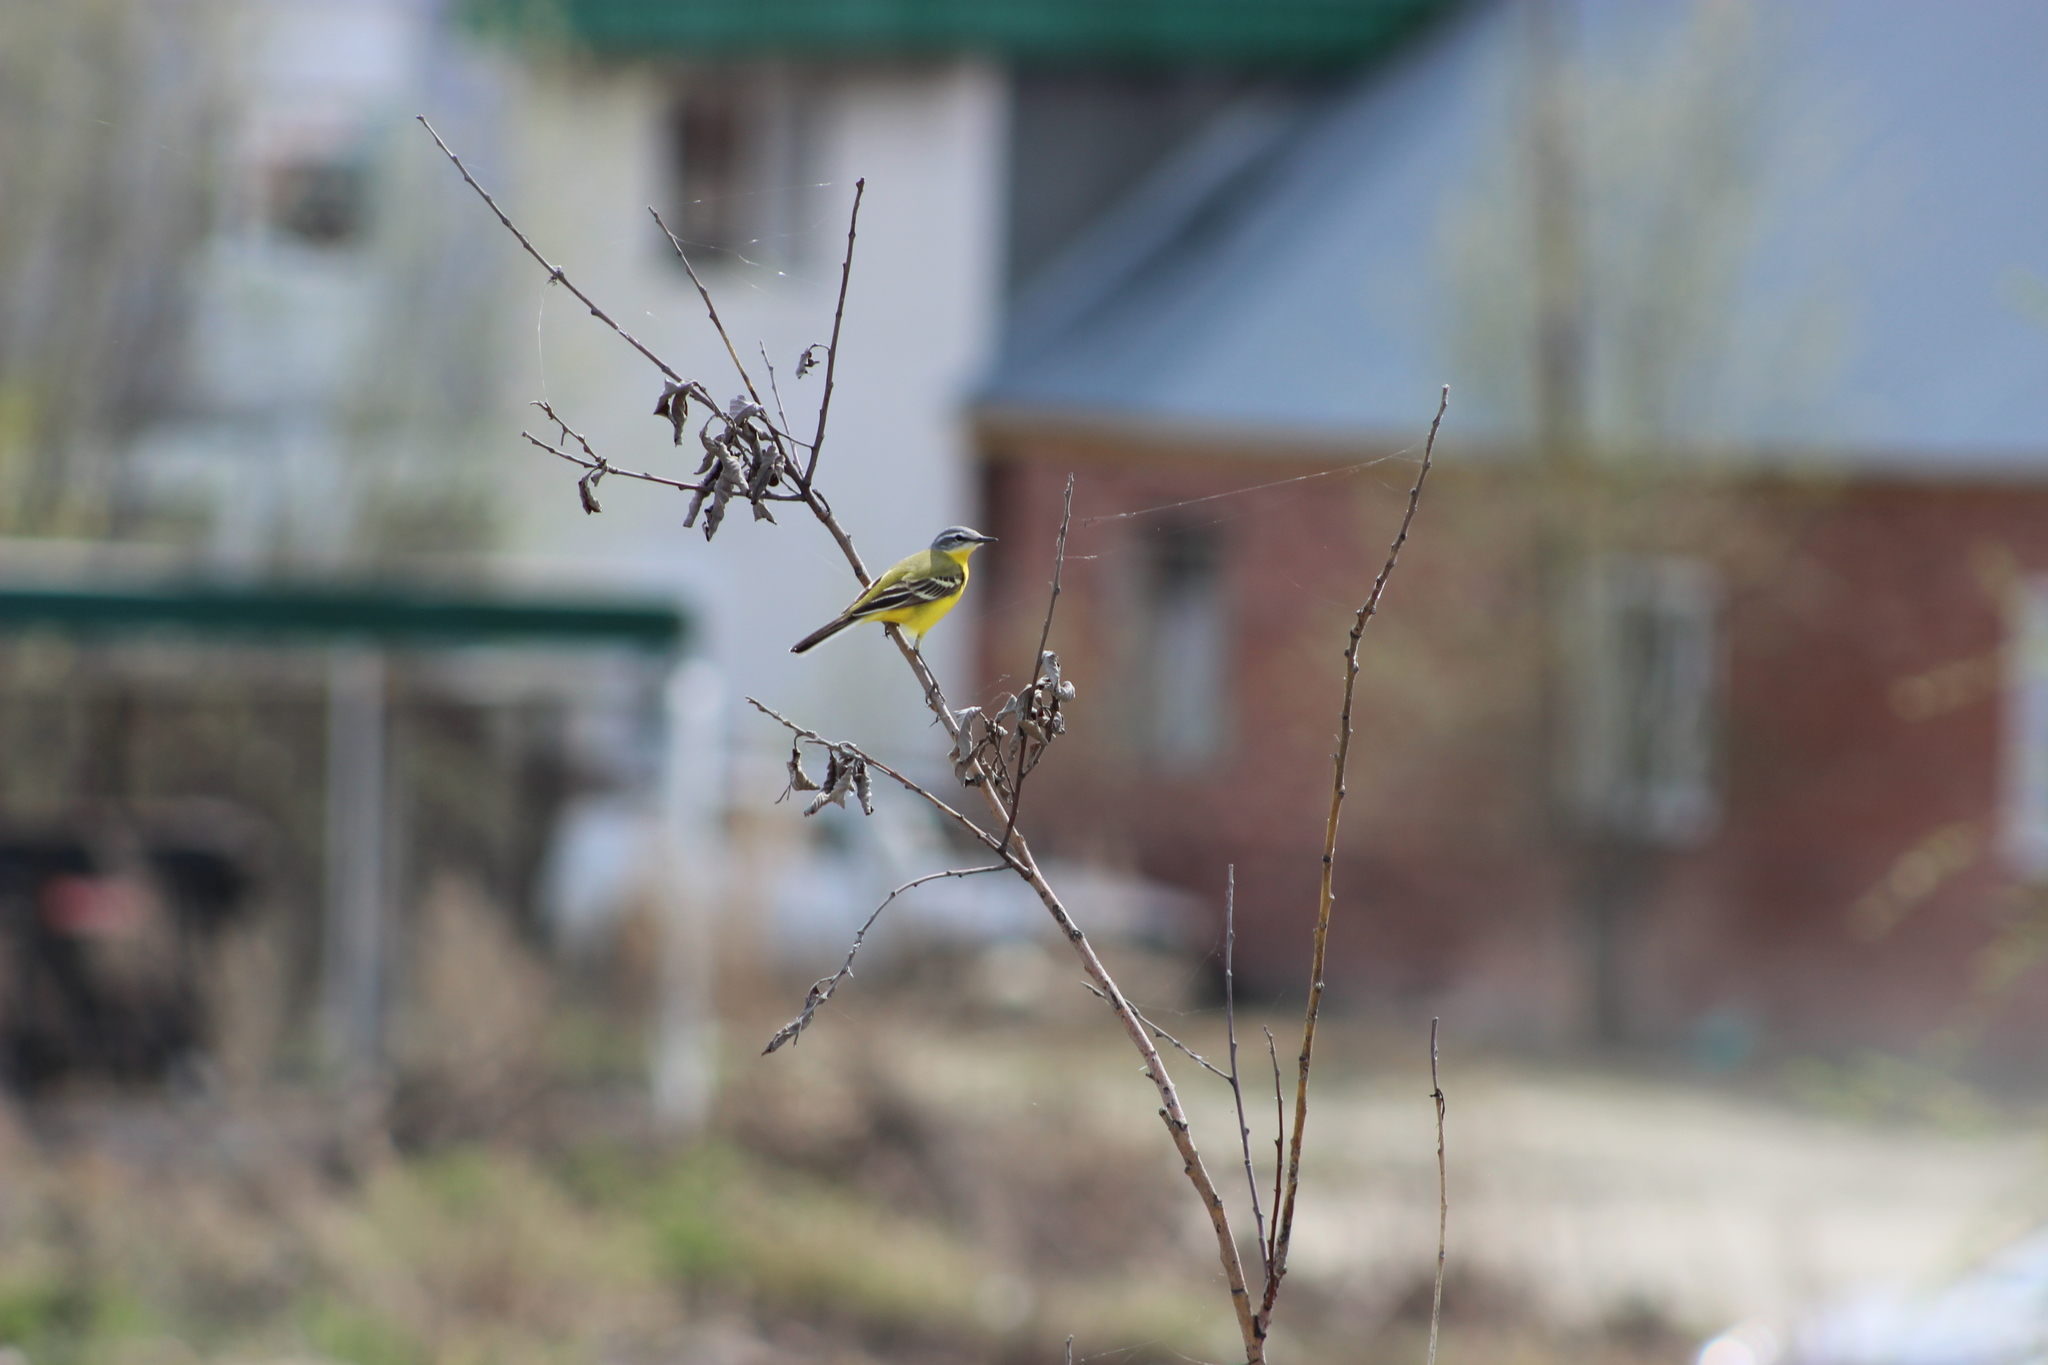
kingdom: Animalia
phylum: Chordata
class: Aves
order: Passeriformes
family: Motacillidae
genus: Motacilla
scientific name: Motacilla flava
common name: Western yellow wagtail
